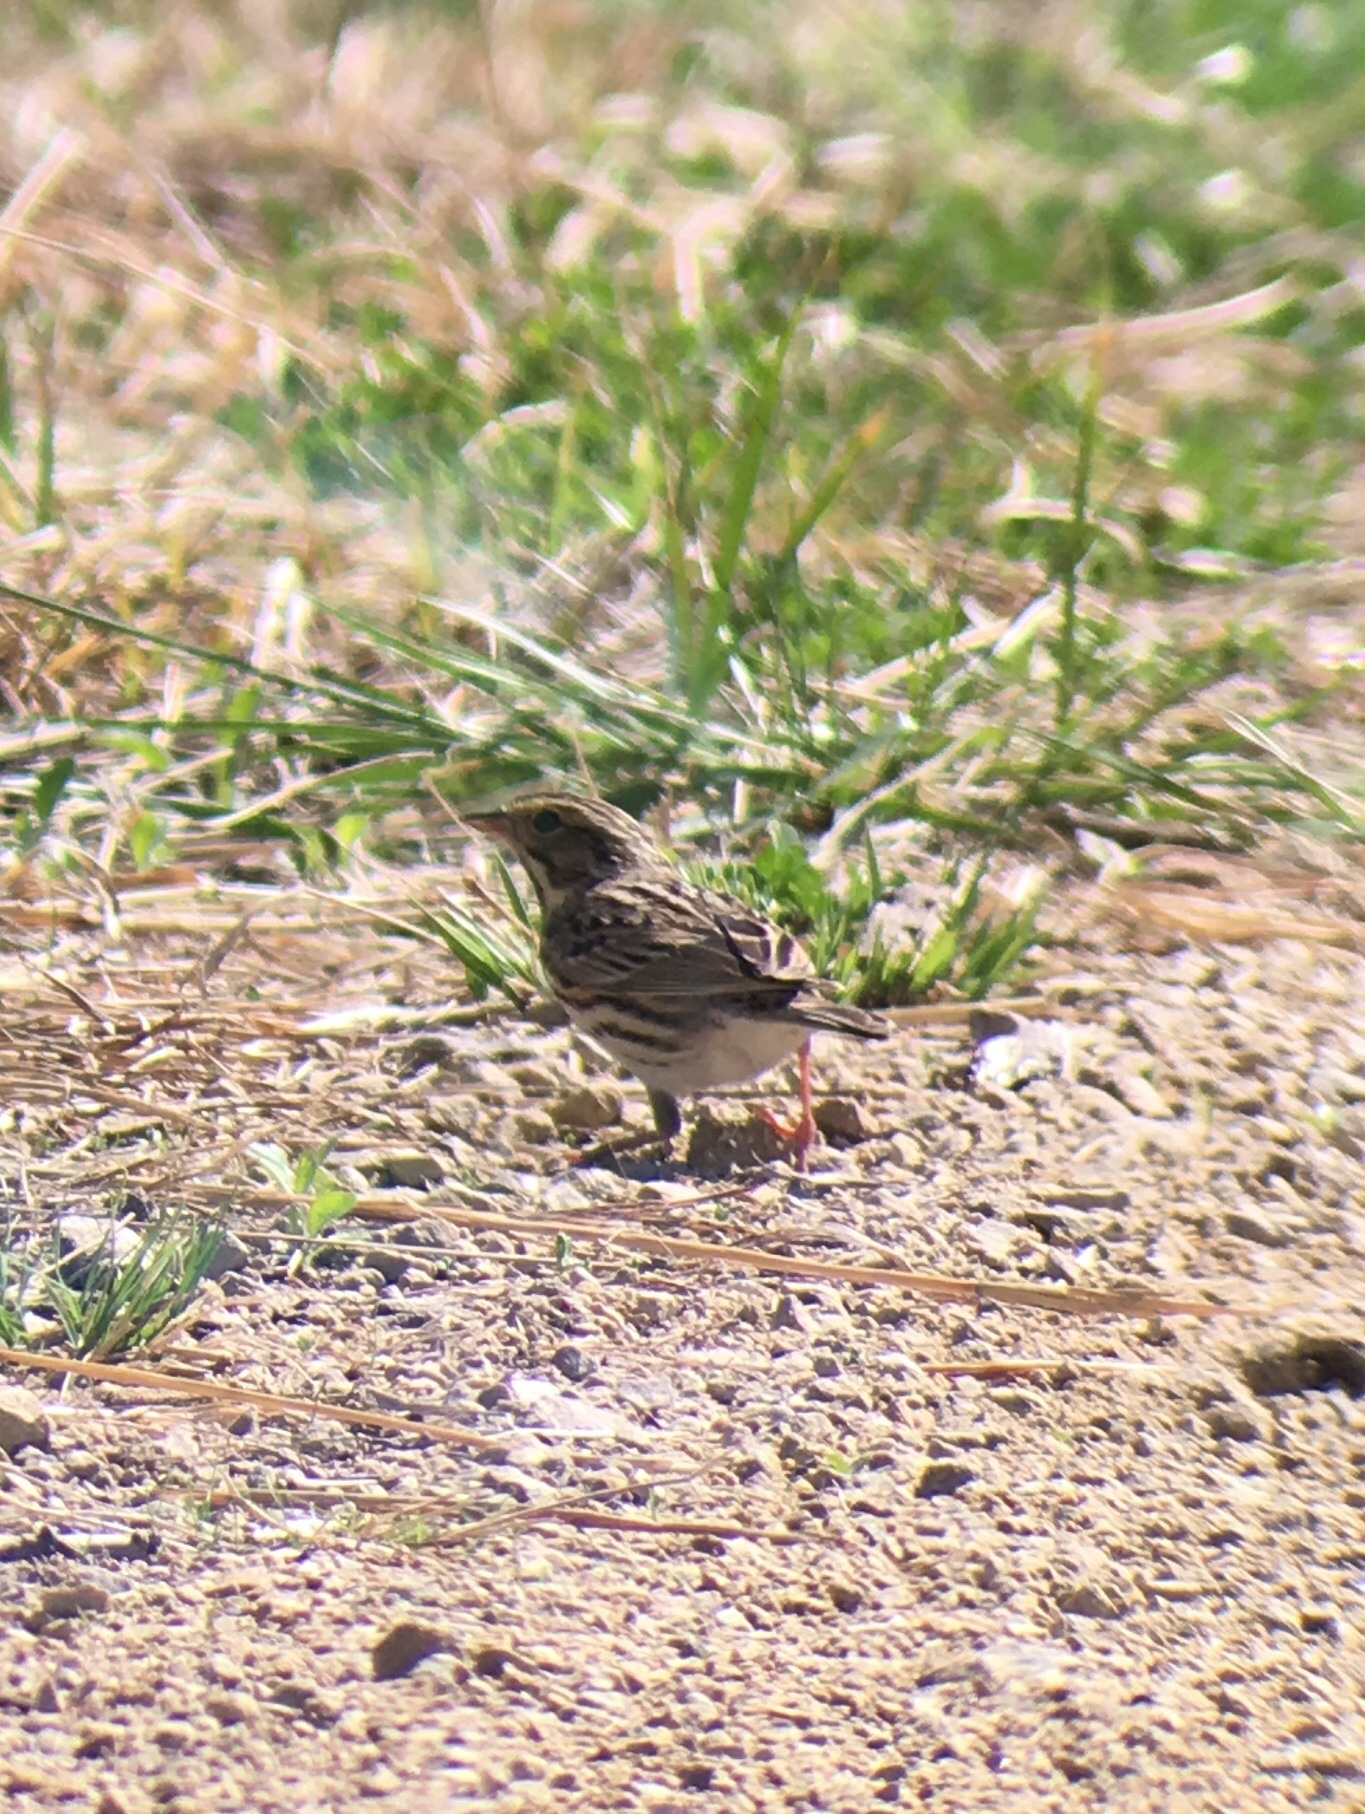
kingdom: Animalia
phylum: Chordata
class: Aves
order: Passeriformes
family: Passerellidae
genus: Passerculus
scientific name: Passerculus sandwichensis
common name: Savannah sparrow
